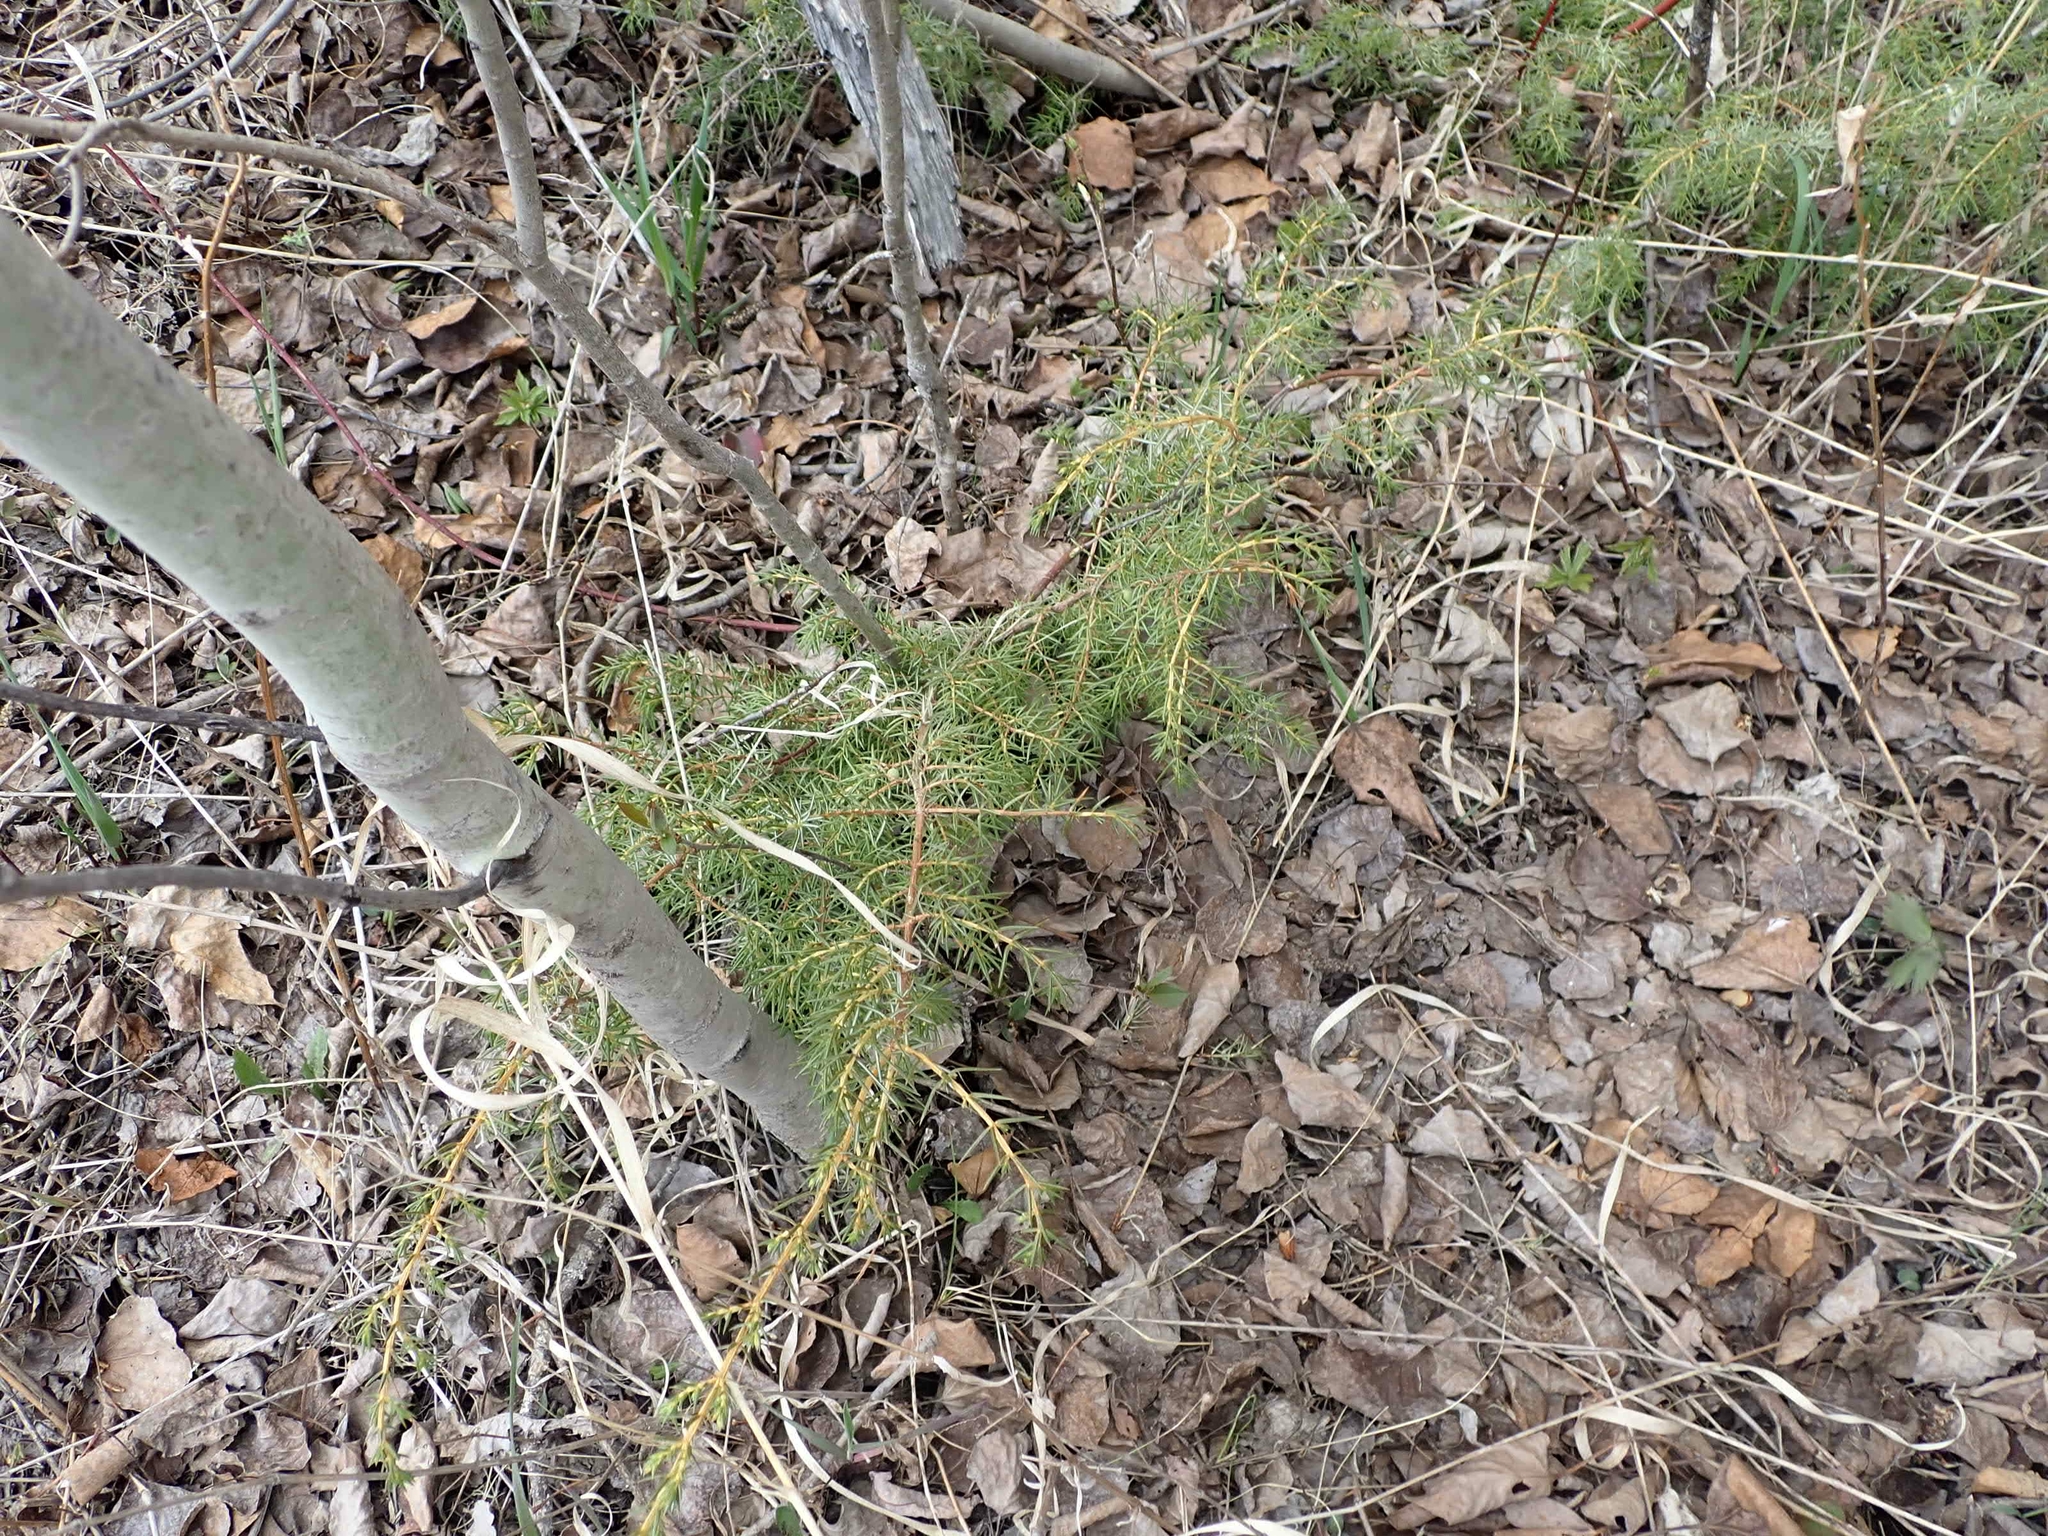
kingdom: Plantae
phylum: Tracheophyta
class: Pinopsida
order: Pinales
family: Cupressaceae
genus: Juniperus
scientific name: Juniperus communis
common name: Common juniper
